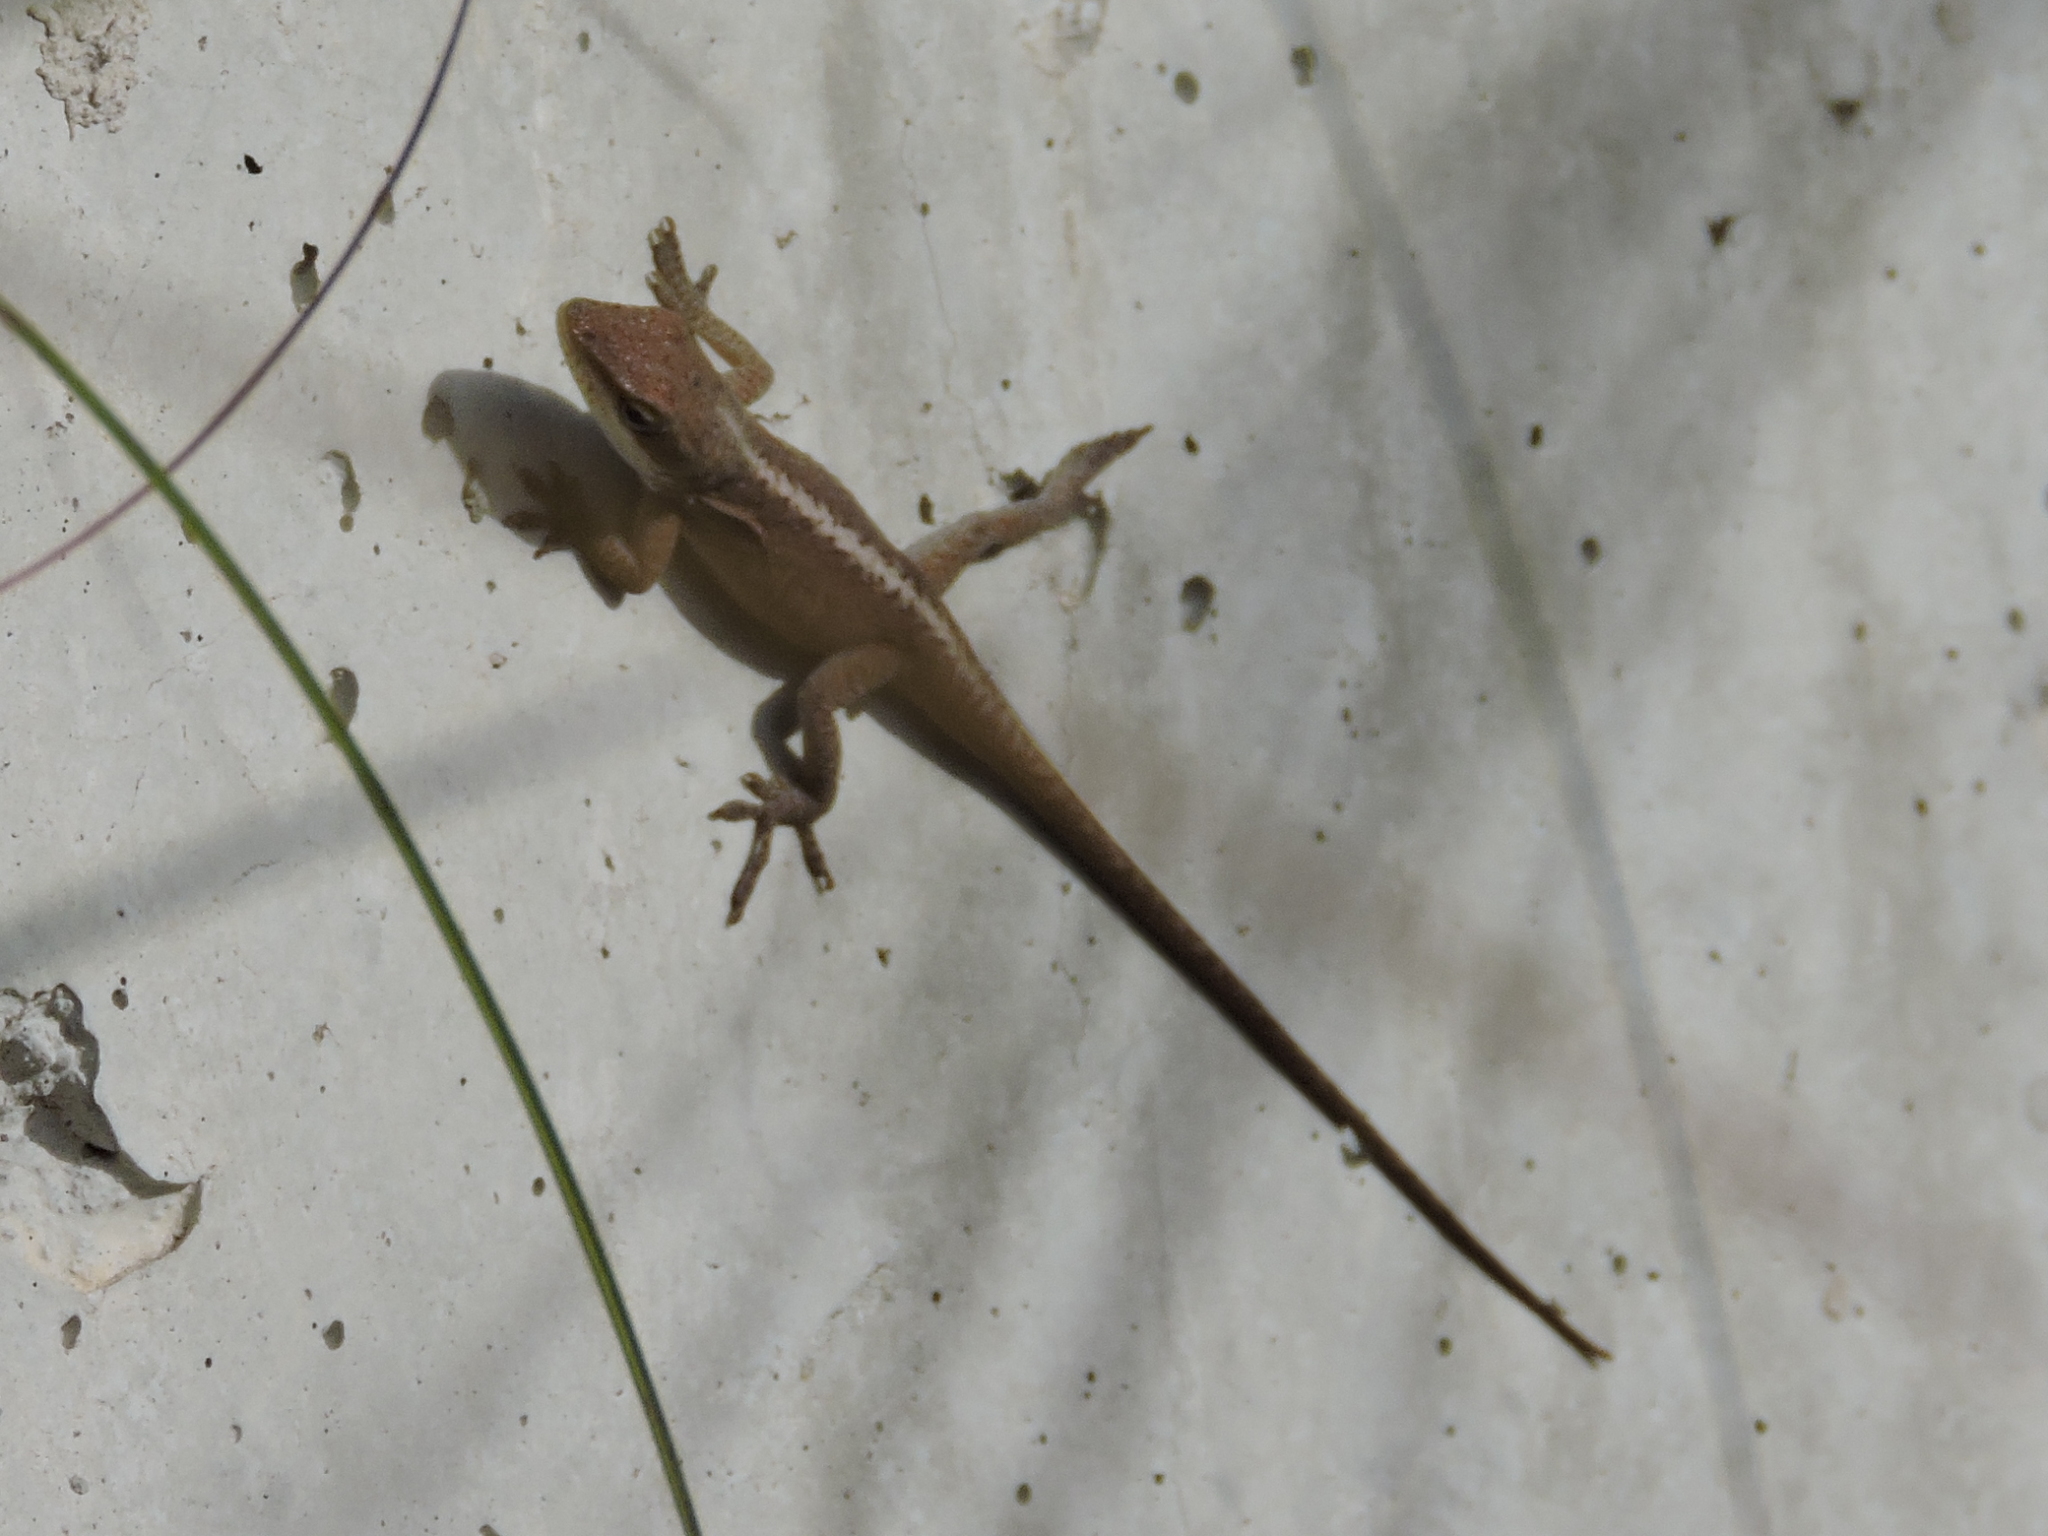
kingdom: Animalia
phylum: Chordata
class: Squamata
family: Dactyloidae
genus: Anolis
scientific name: Anolis carolinensis
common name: Green anole
